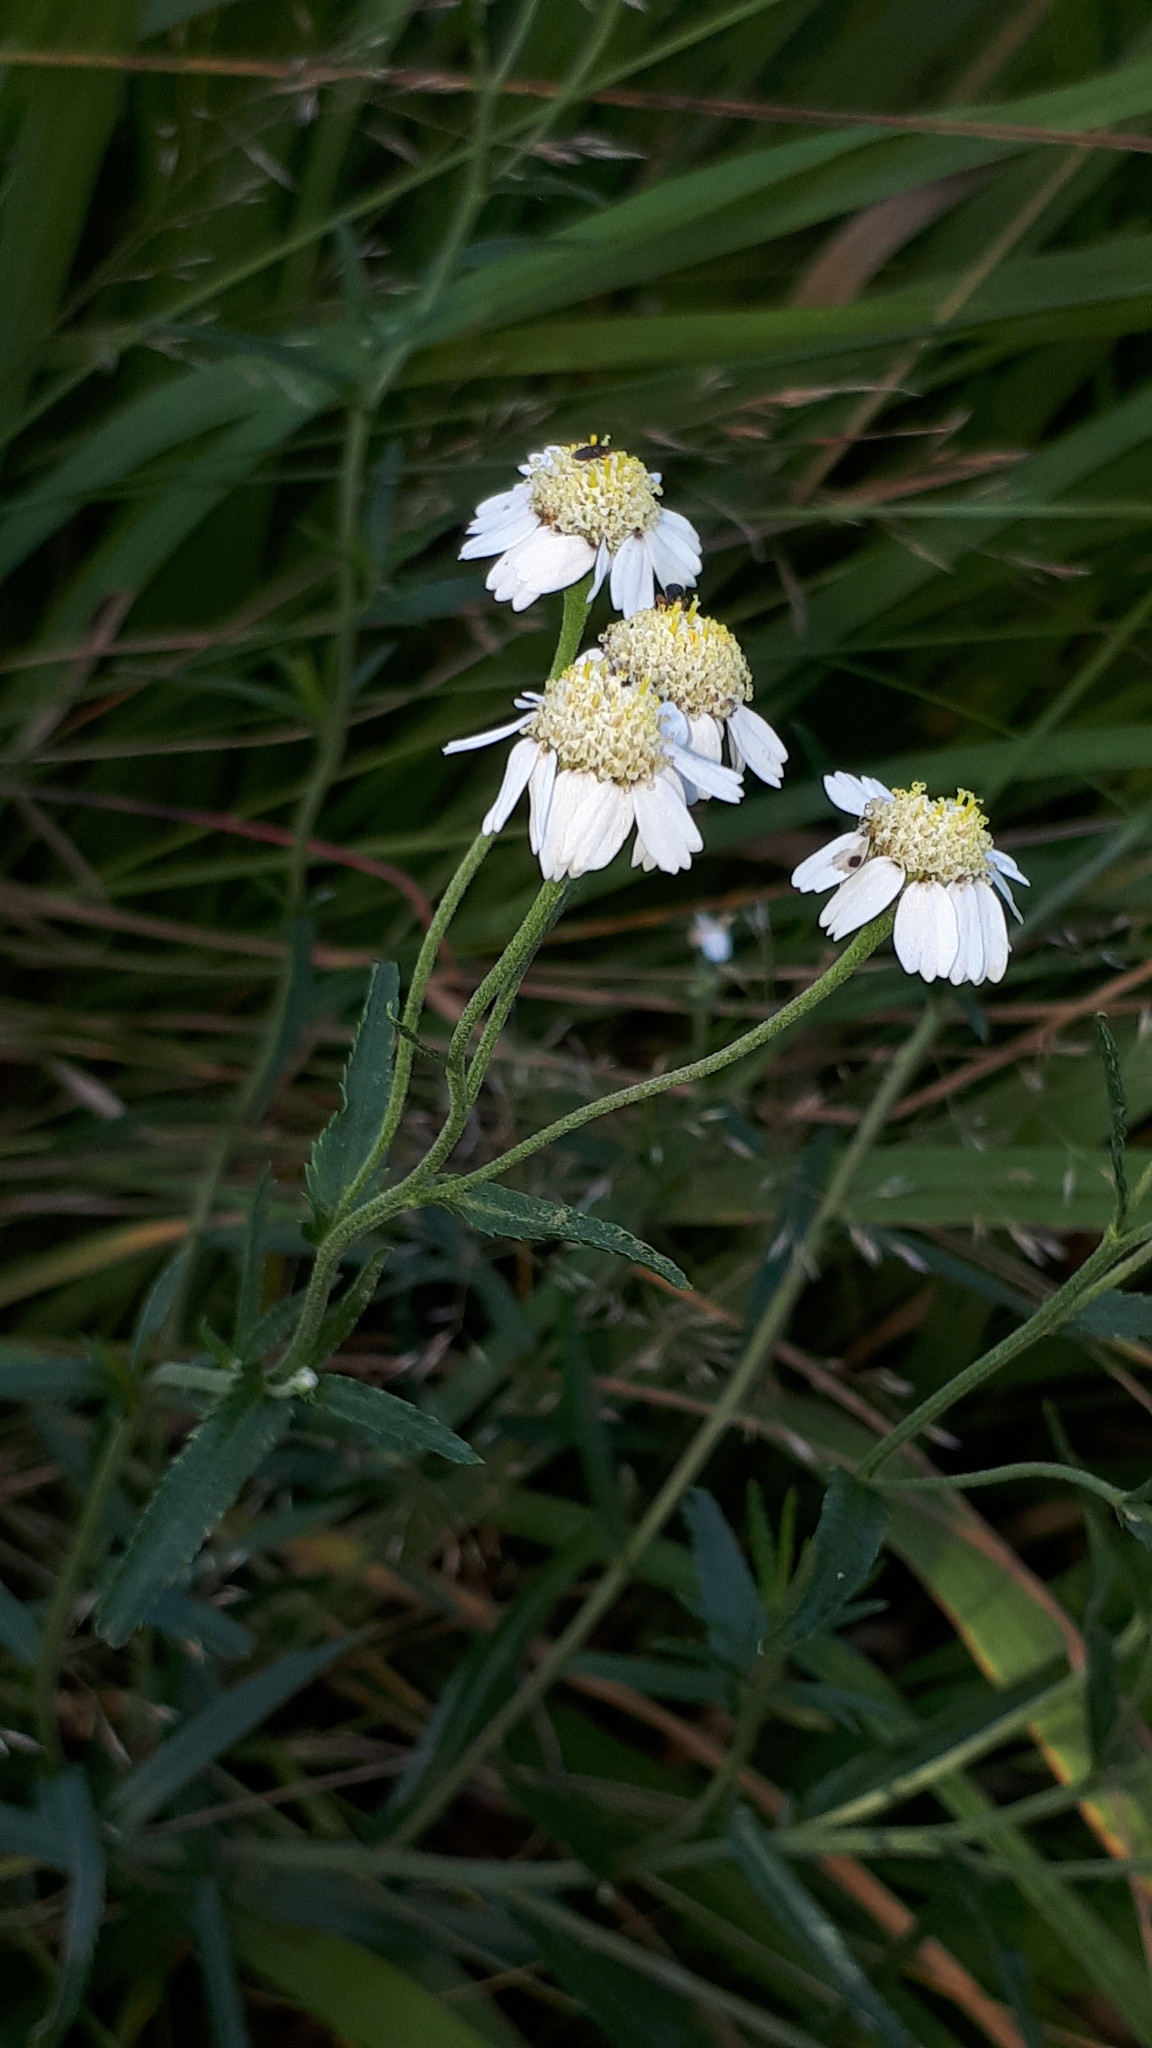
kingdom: Plantae
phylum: Tracheophyta
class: Magnoliopsida
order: Asterales
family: Asteraceae
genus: Achillea
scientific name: Achillea ptarmica
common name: Sneezeweed
